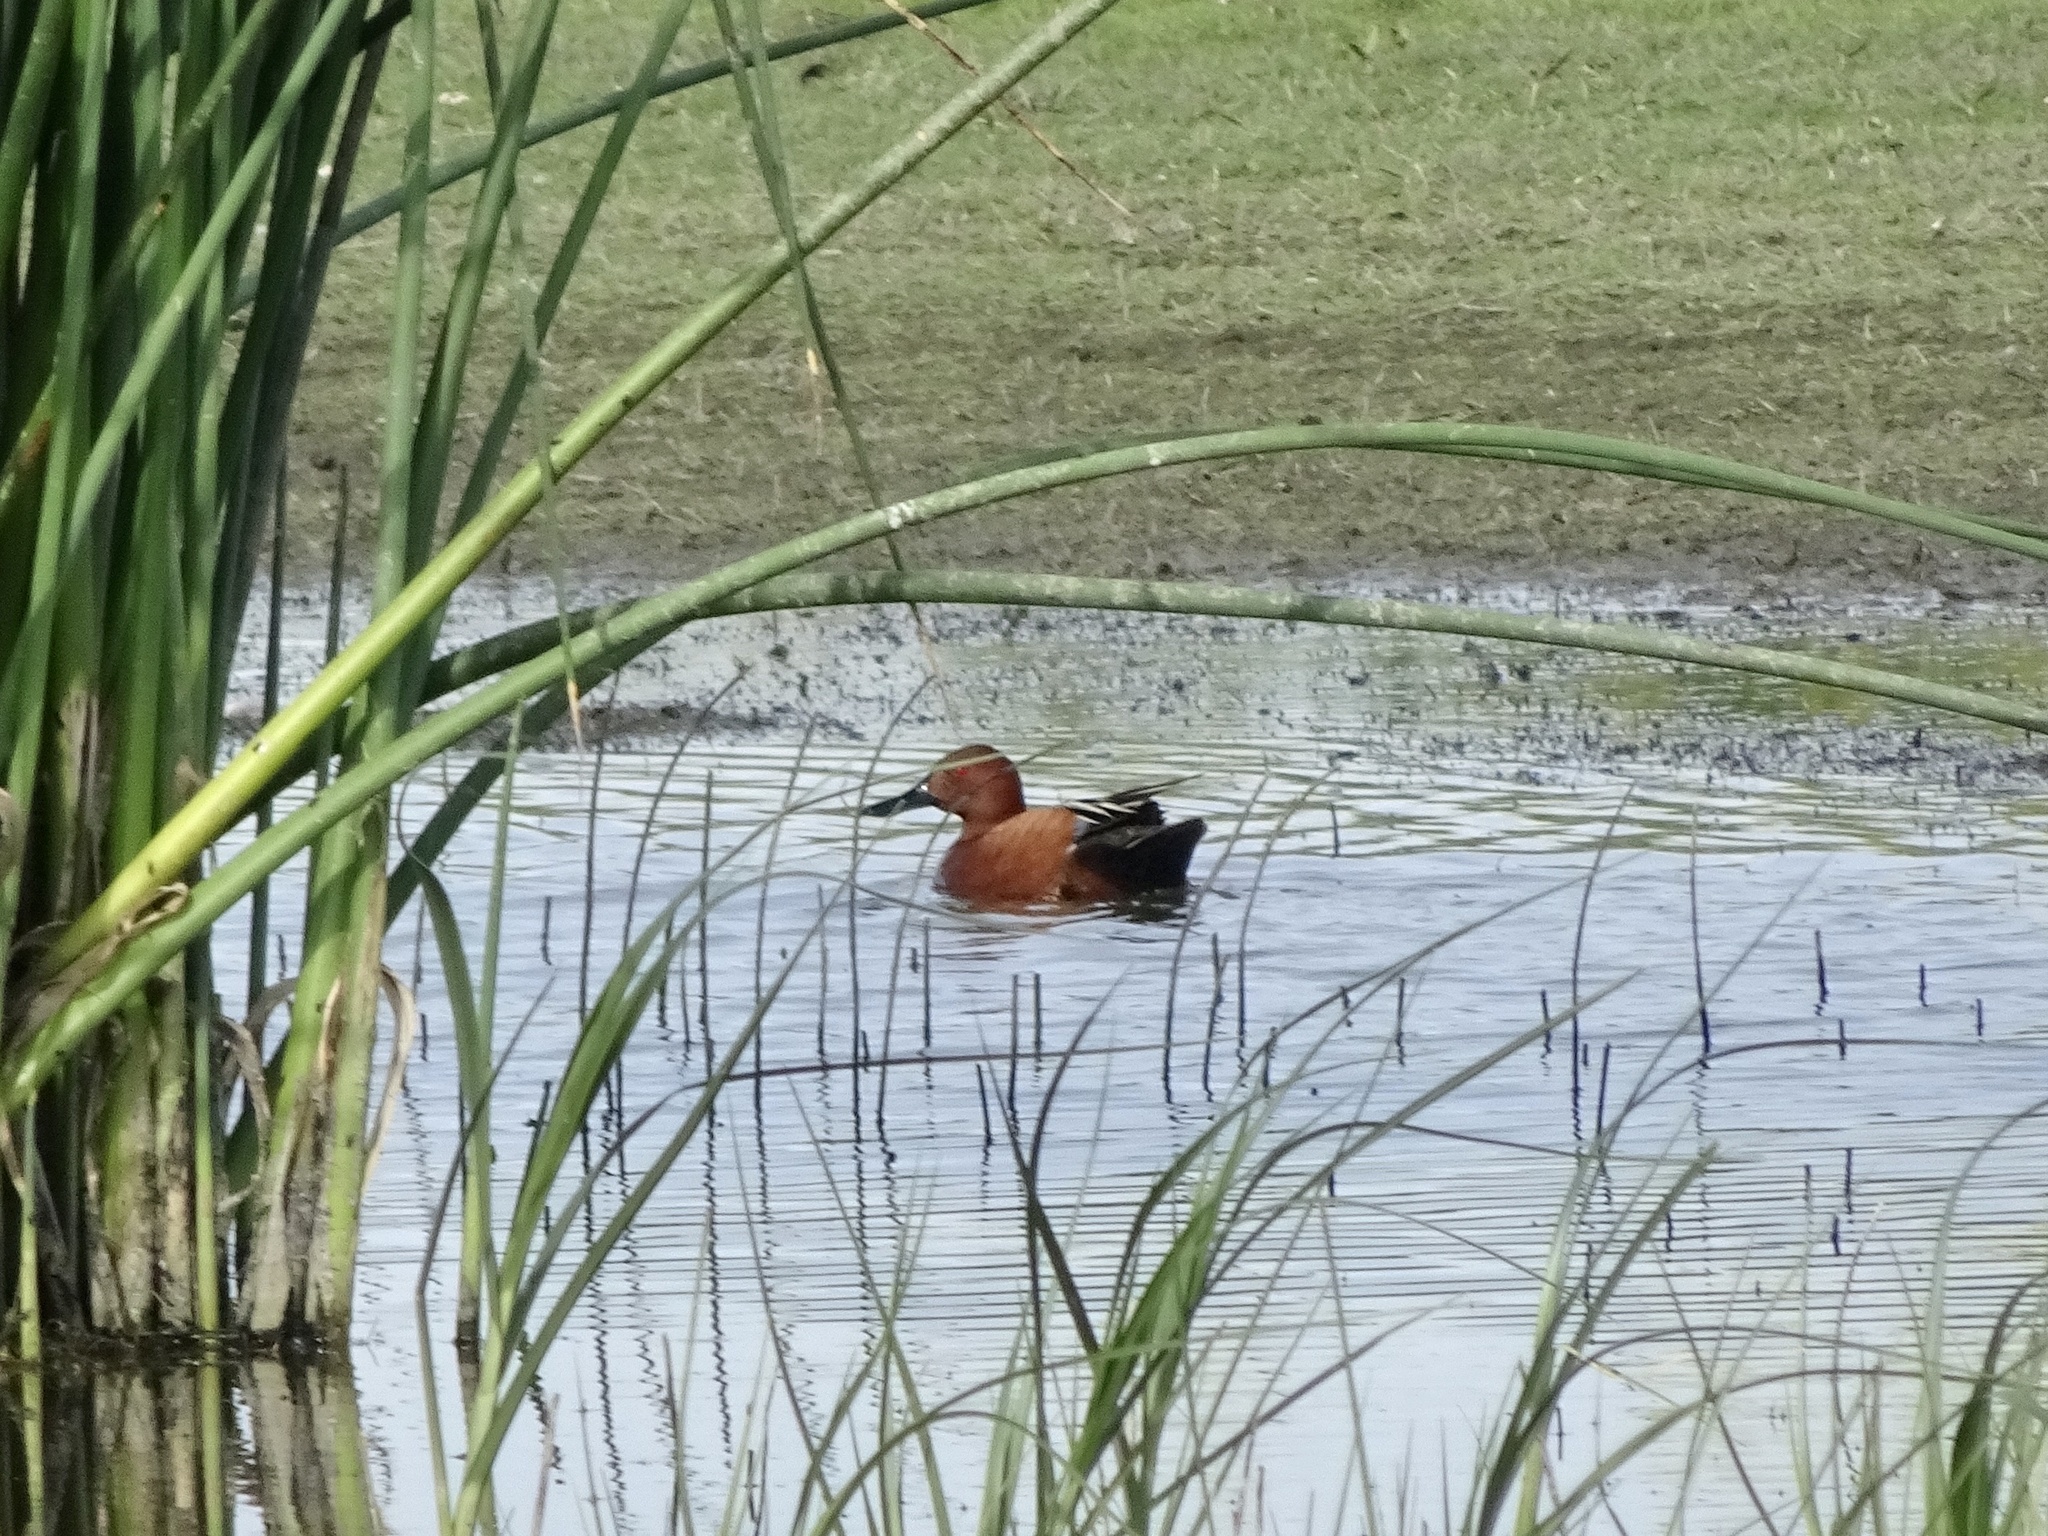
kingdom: Animalia
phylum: Chordata
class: Aves
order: Anseriformes
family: Anatidae
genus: Spatula
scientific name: Spatula cyanoptera
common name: Cinnamon teal
